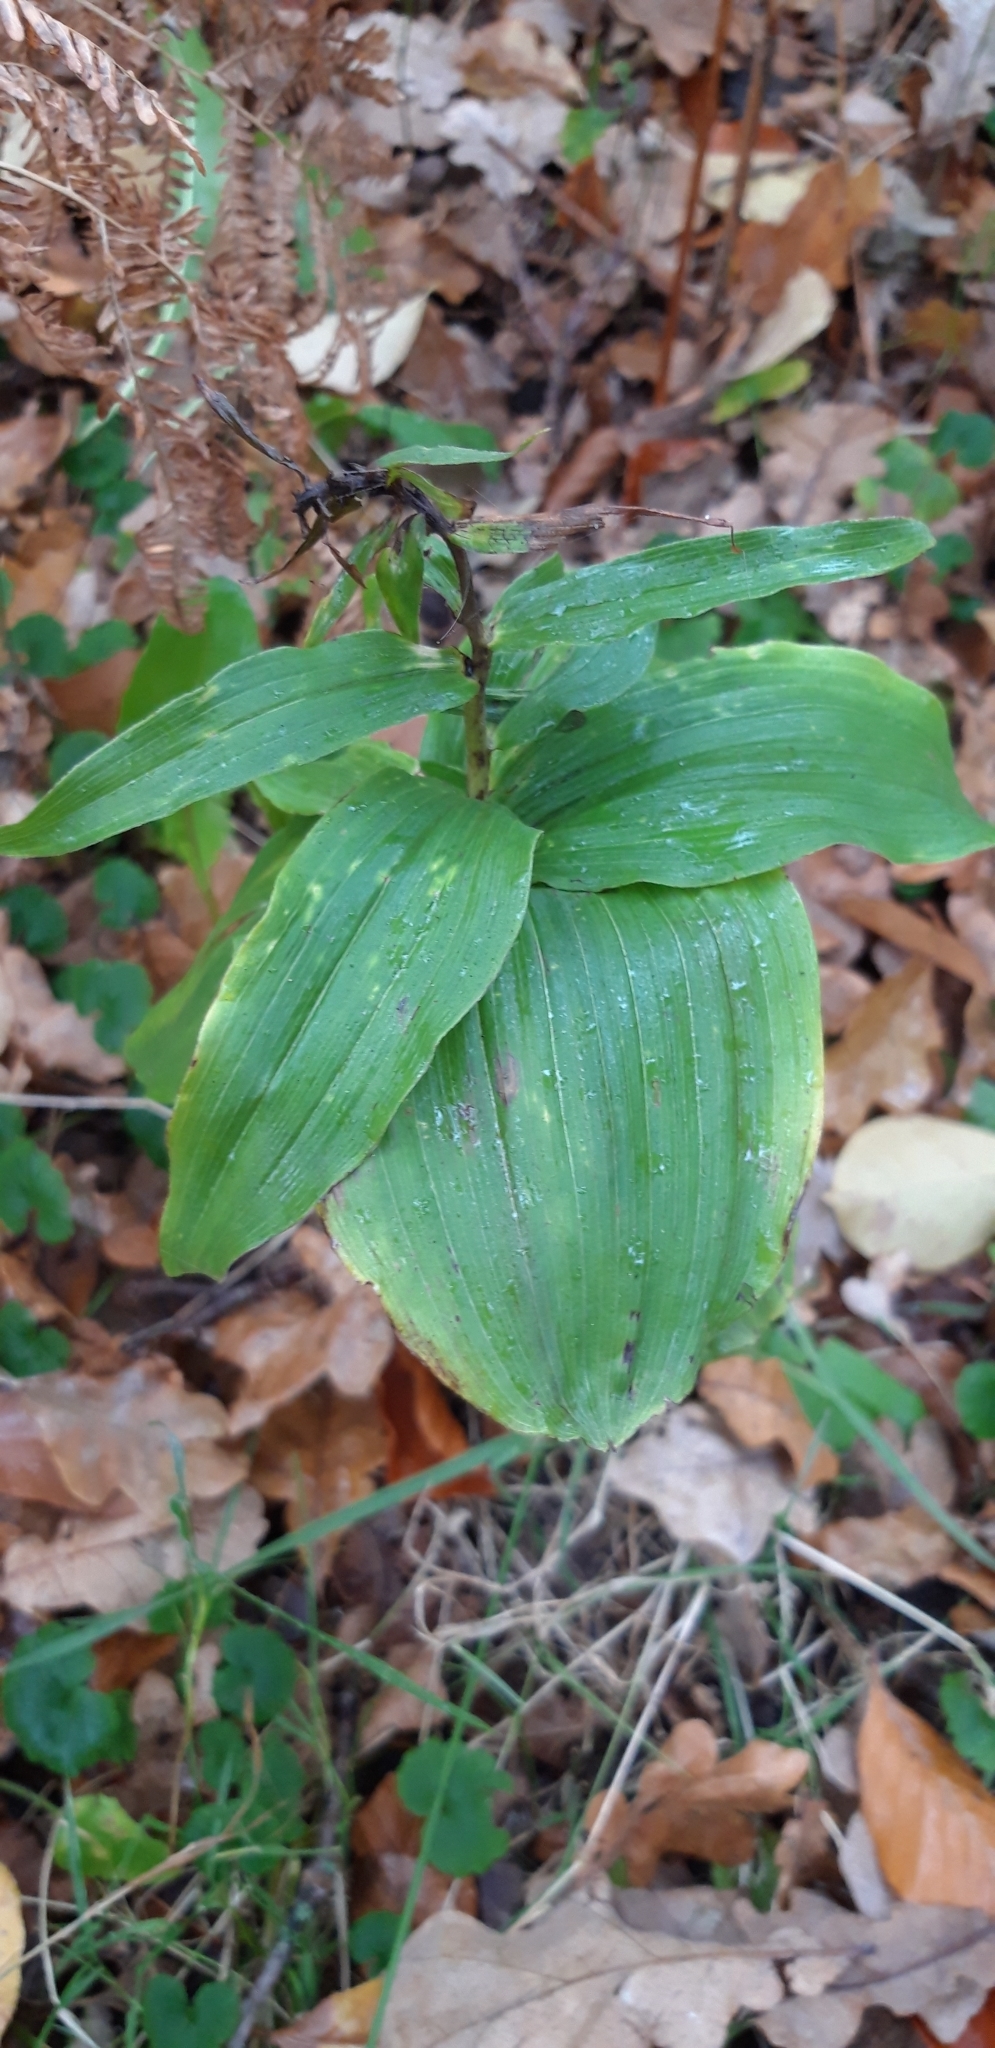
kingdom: Plantae
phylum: Tracheophyta
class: Liliopsida
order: Asparagales
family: Orchidaceae
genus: Epipactis
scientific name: Epipactis helleborine
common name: Broad-leaved helleborine
